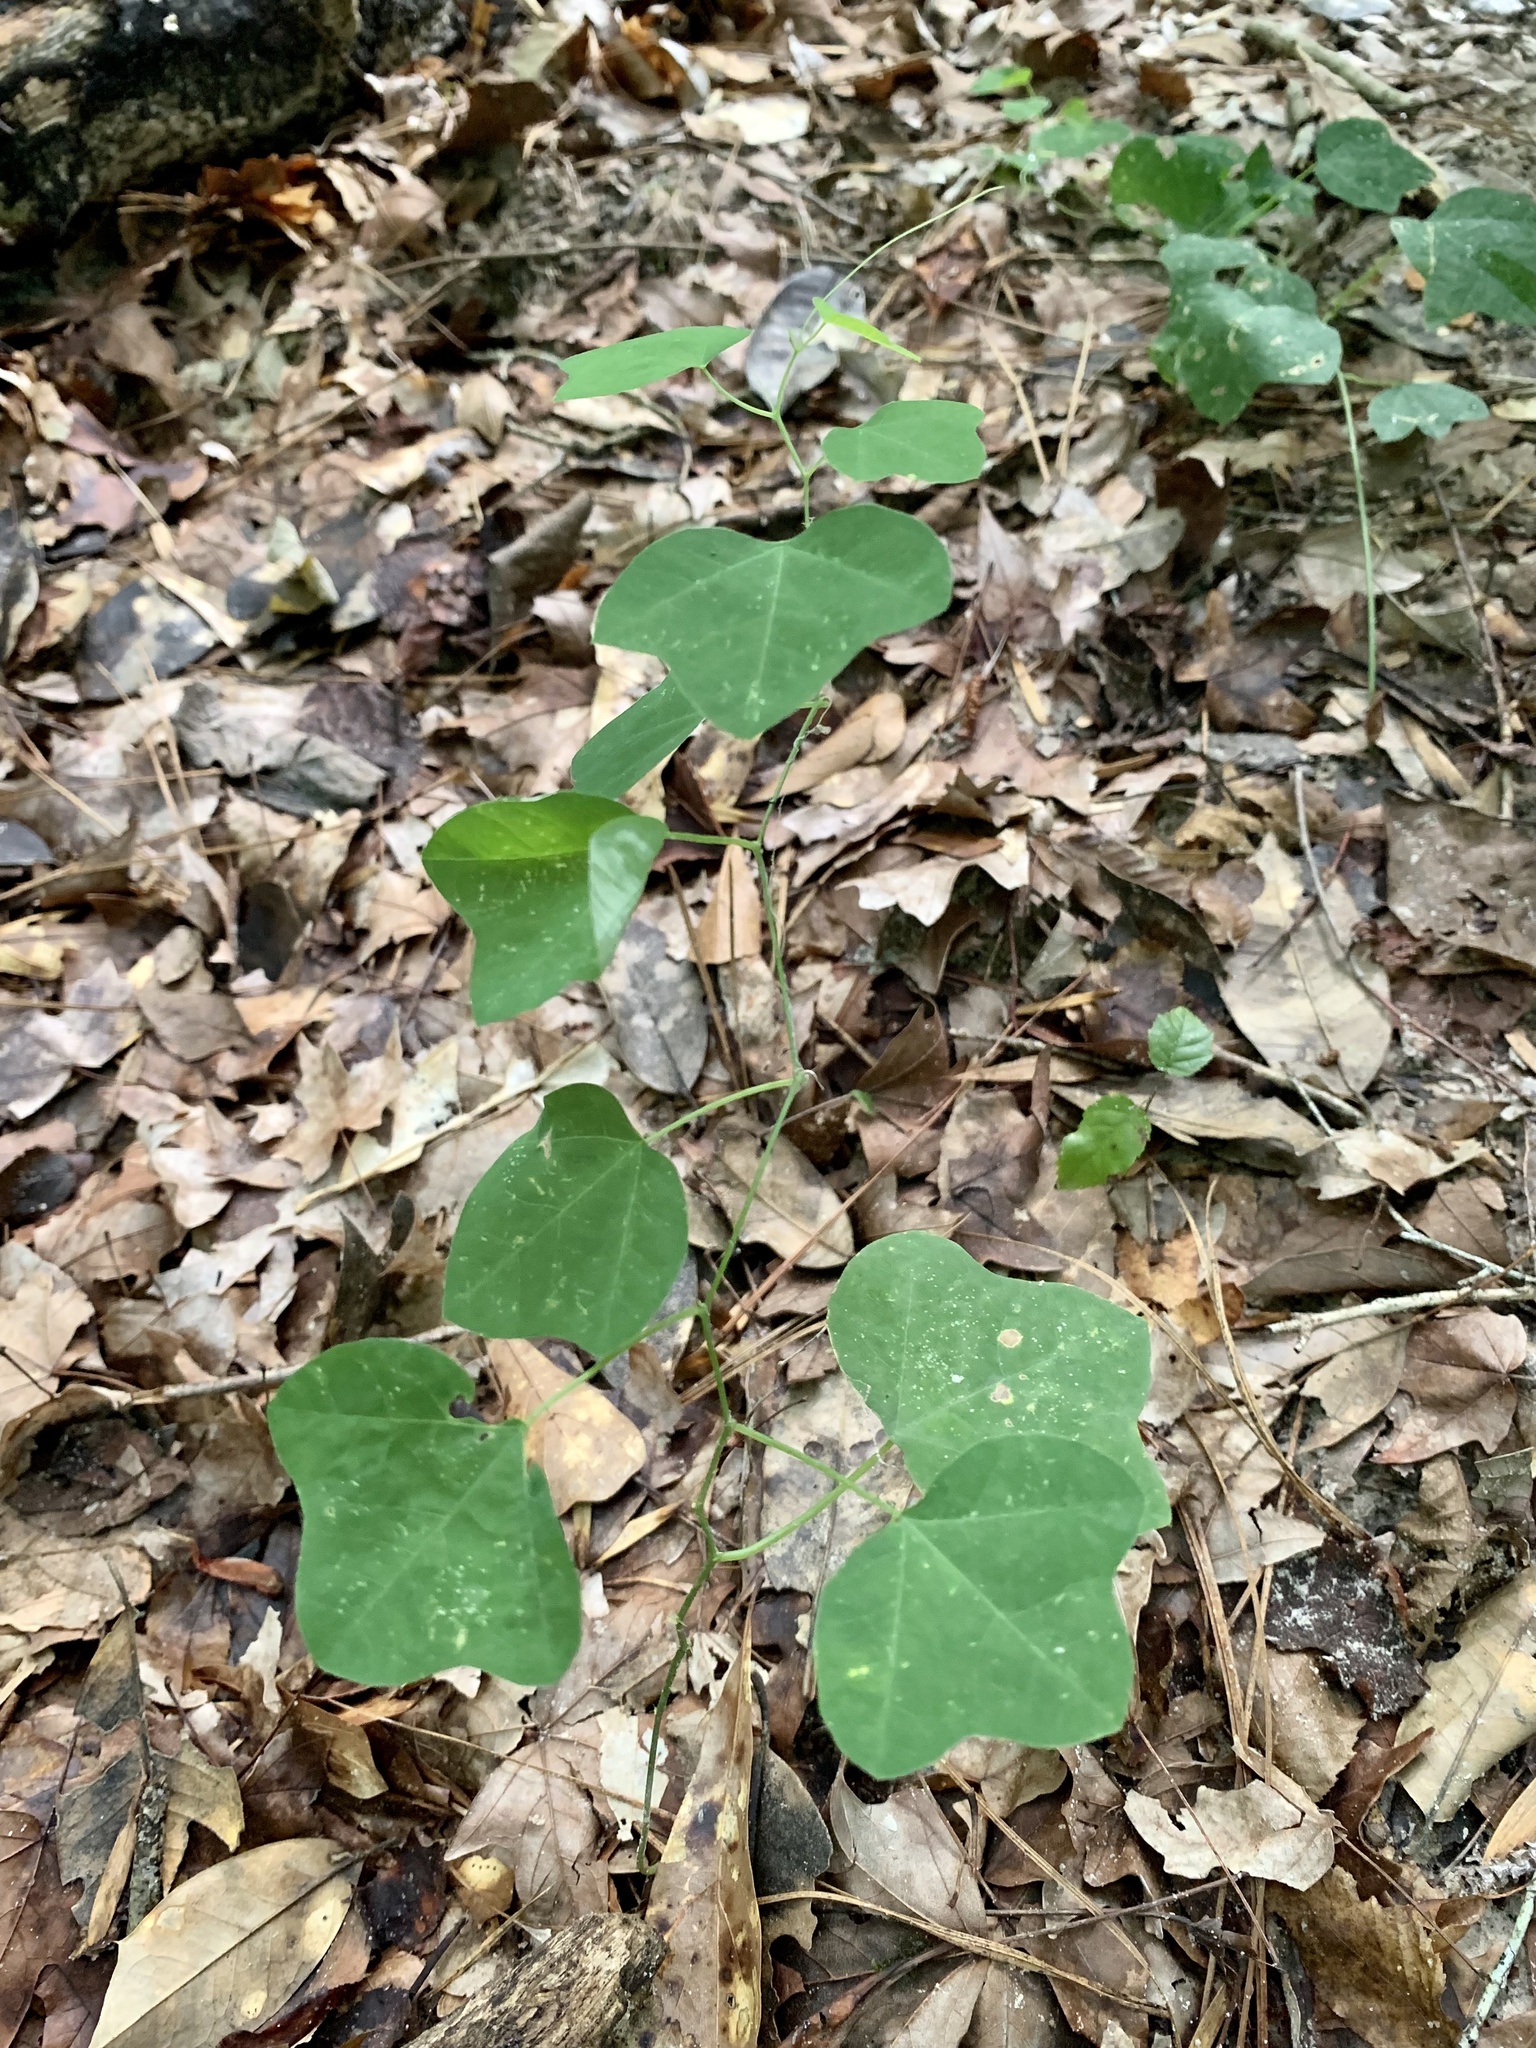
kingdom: Plantae
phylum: Tracheophyta
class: Magnoliopsida
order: Malpighiales
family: Passifloraceae
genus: Passiflora
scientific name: Passiflora lutea
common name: Yellow passionflower
